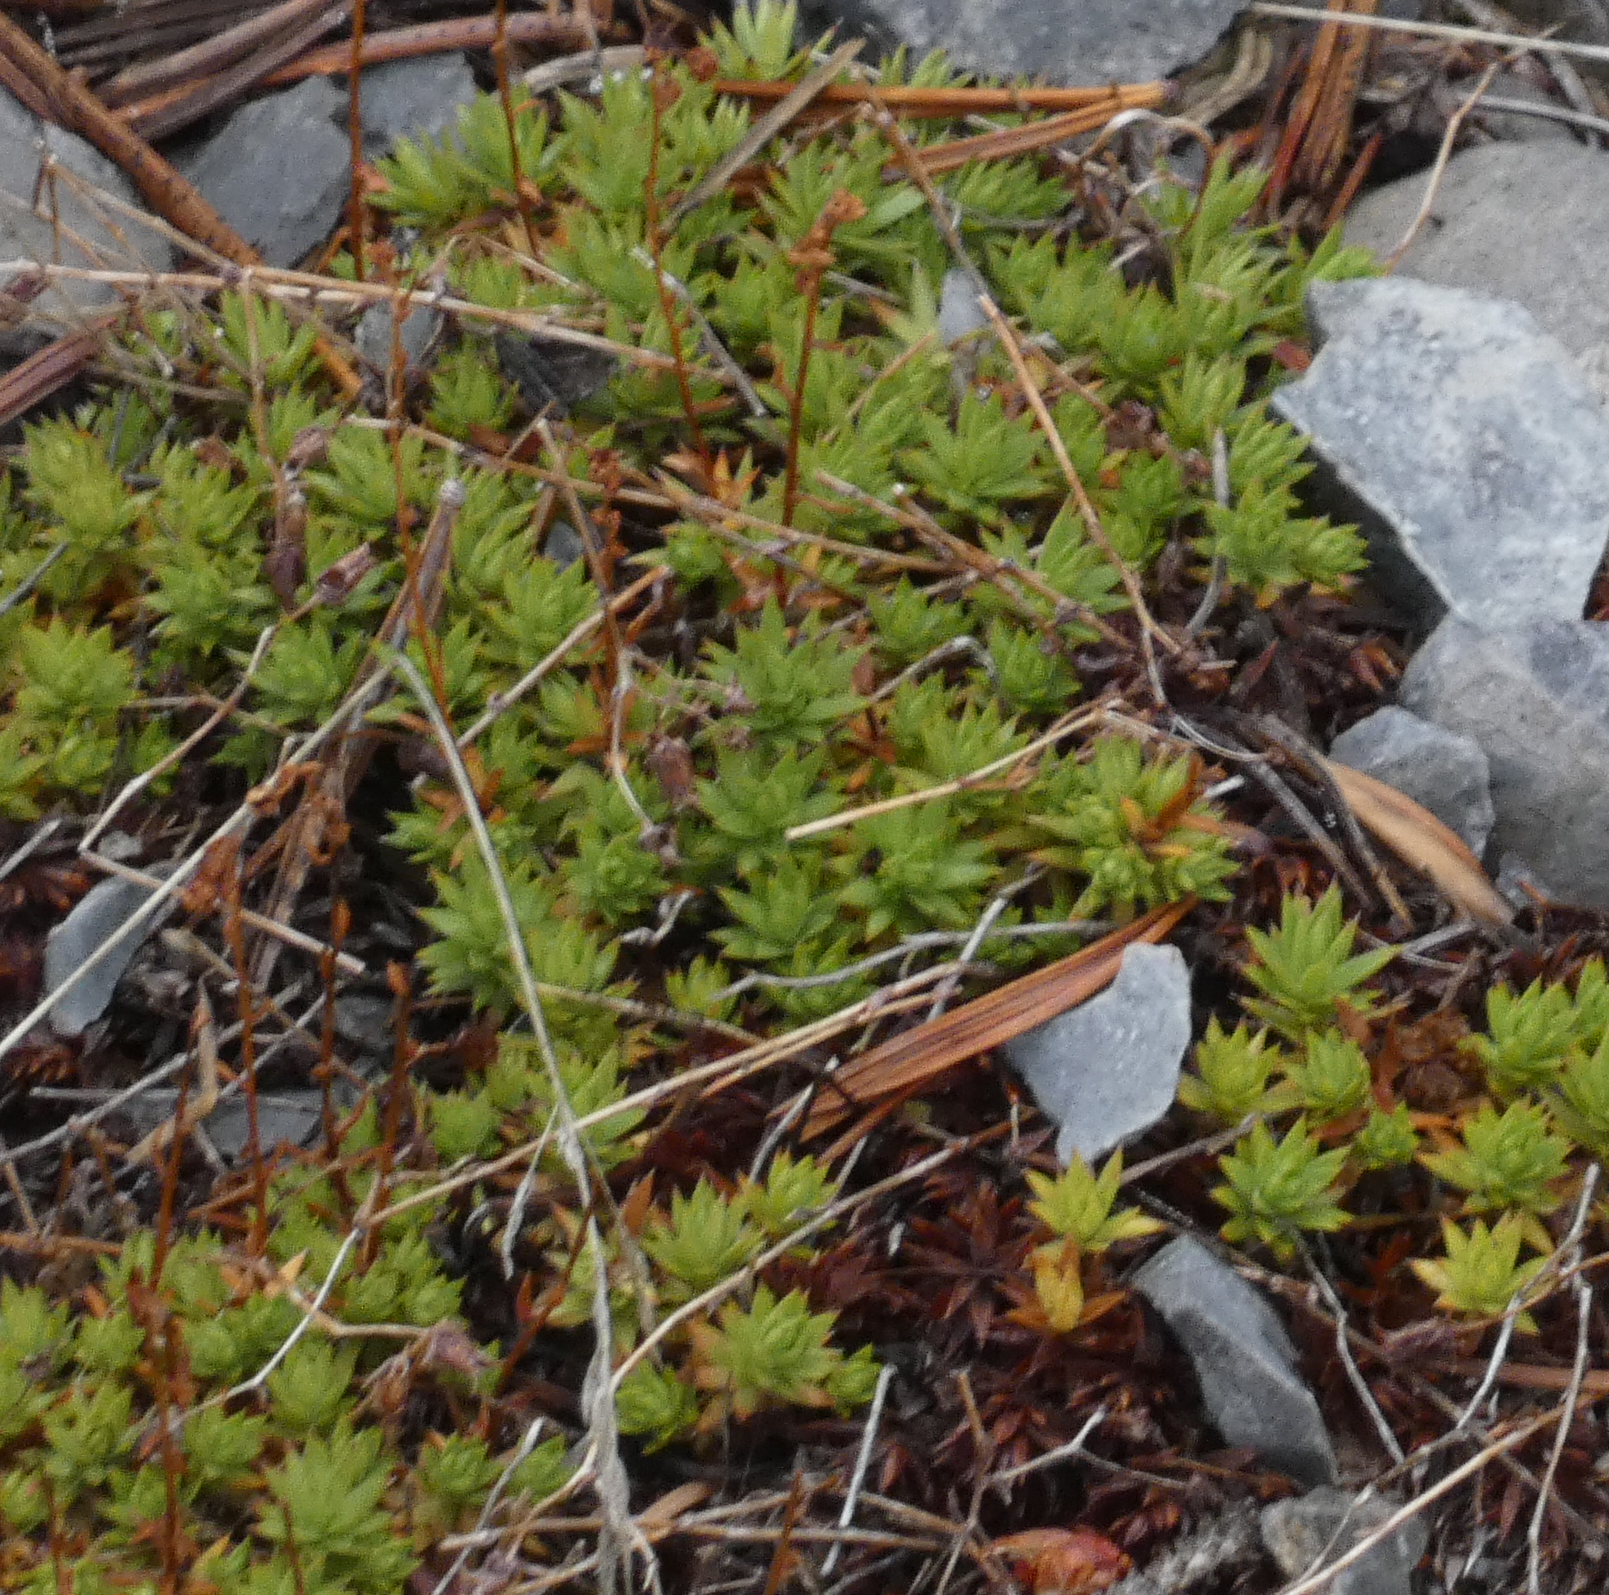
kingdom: Plantae
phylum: Tracheophyta
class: Magnoliopsida
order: Saxifragales
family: Saxifragaceae
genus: Saxifraga
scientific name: Saxifraga bronchialis
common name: Matted saxifrage
